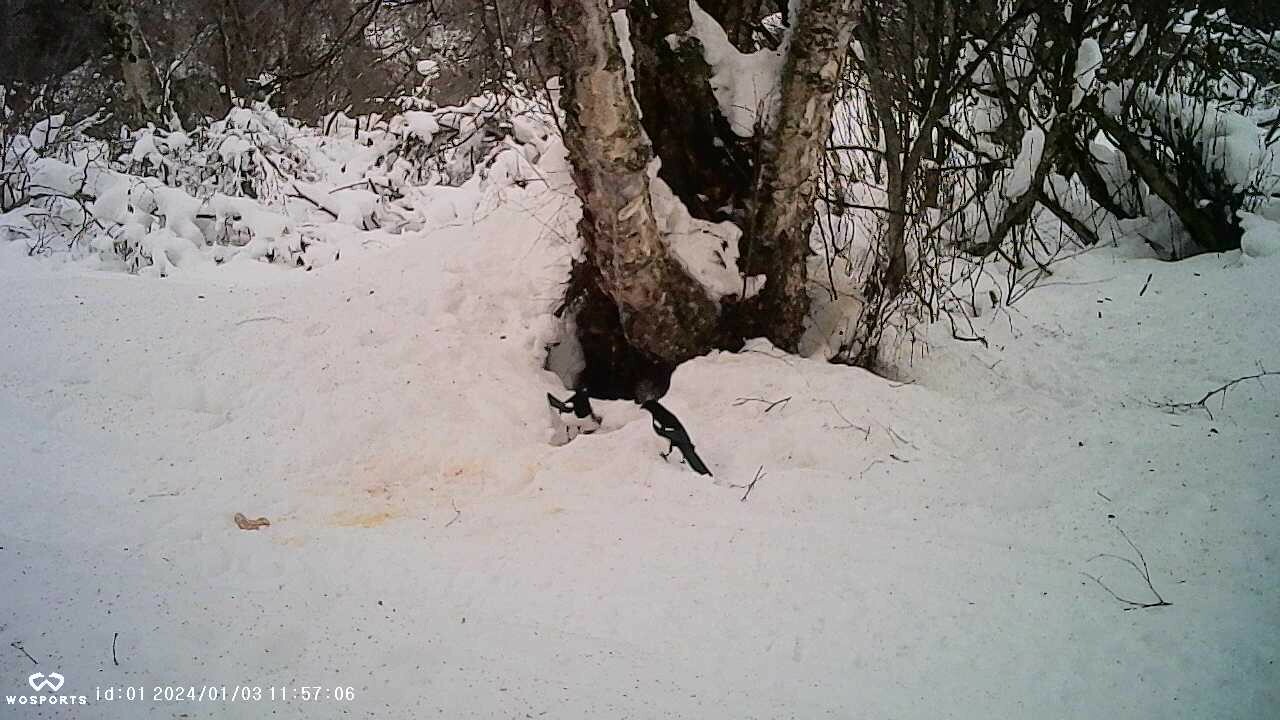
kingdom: Animalia
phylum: Chordata
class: Aves
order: Passeriformes
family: Corvidae
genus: Pica
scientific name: Pica hudsonia
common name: Black-billed magpie
